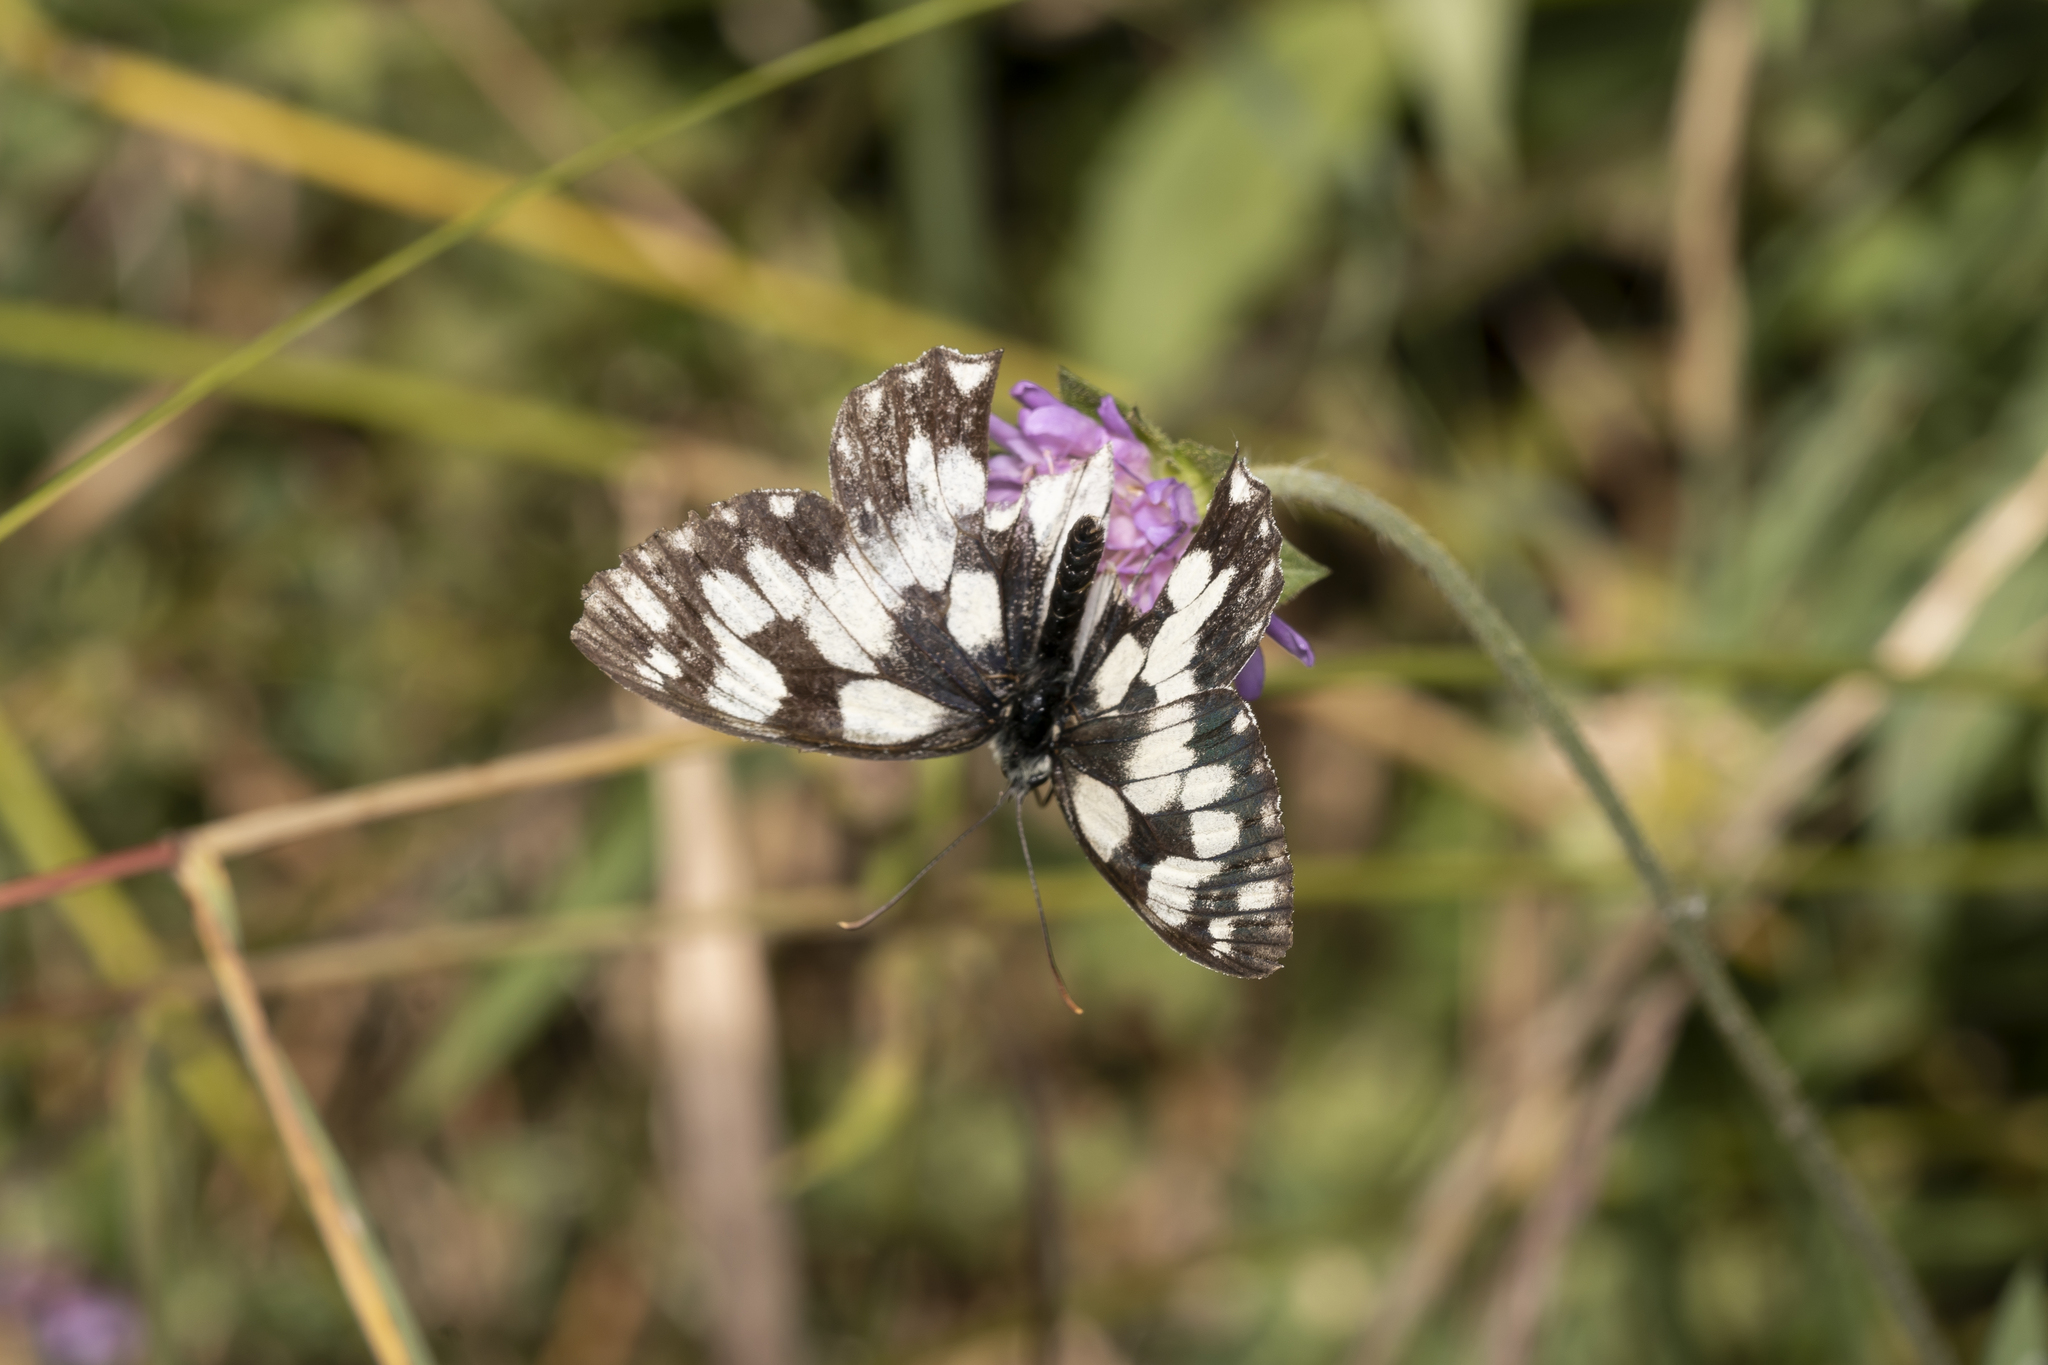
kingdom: Animalia
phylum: Arthropoda
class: Insecta
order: Lepidoptera
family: Nymphalidae
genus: Melanargia
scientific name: Melanargia galathea
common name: Marbled white
